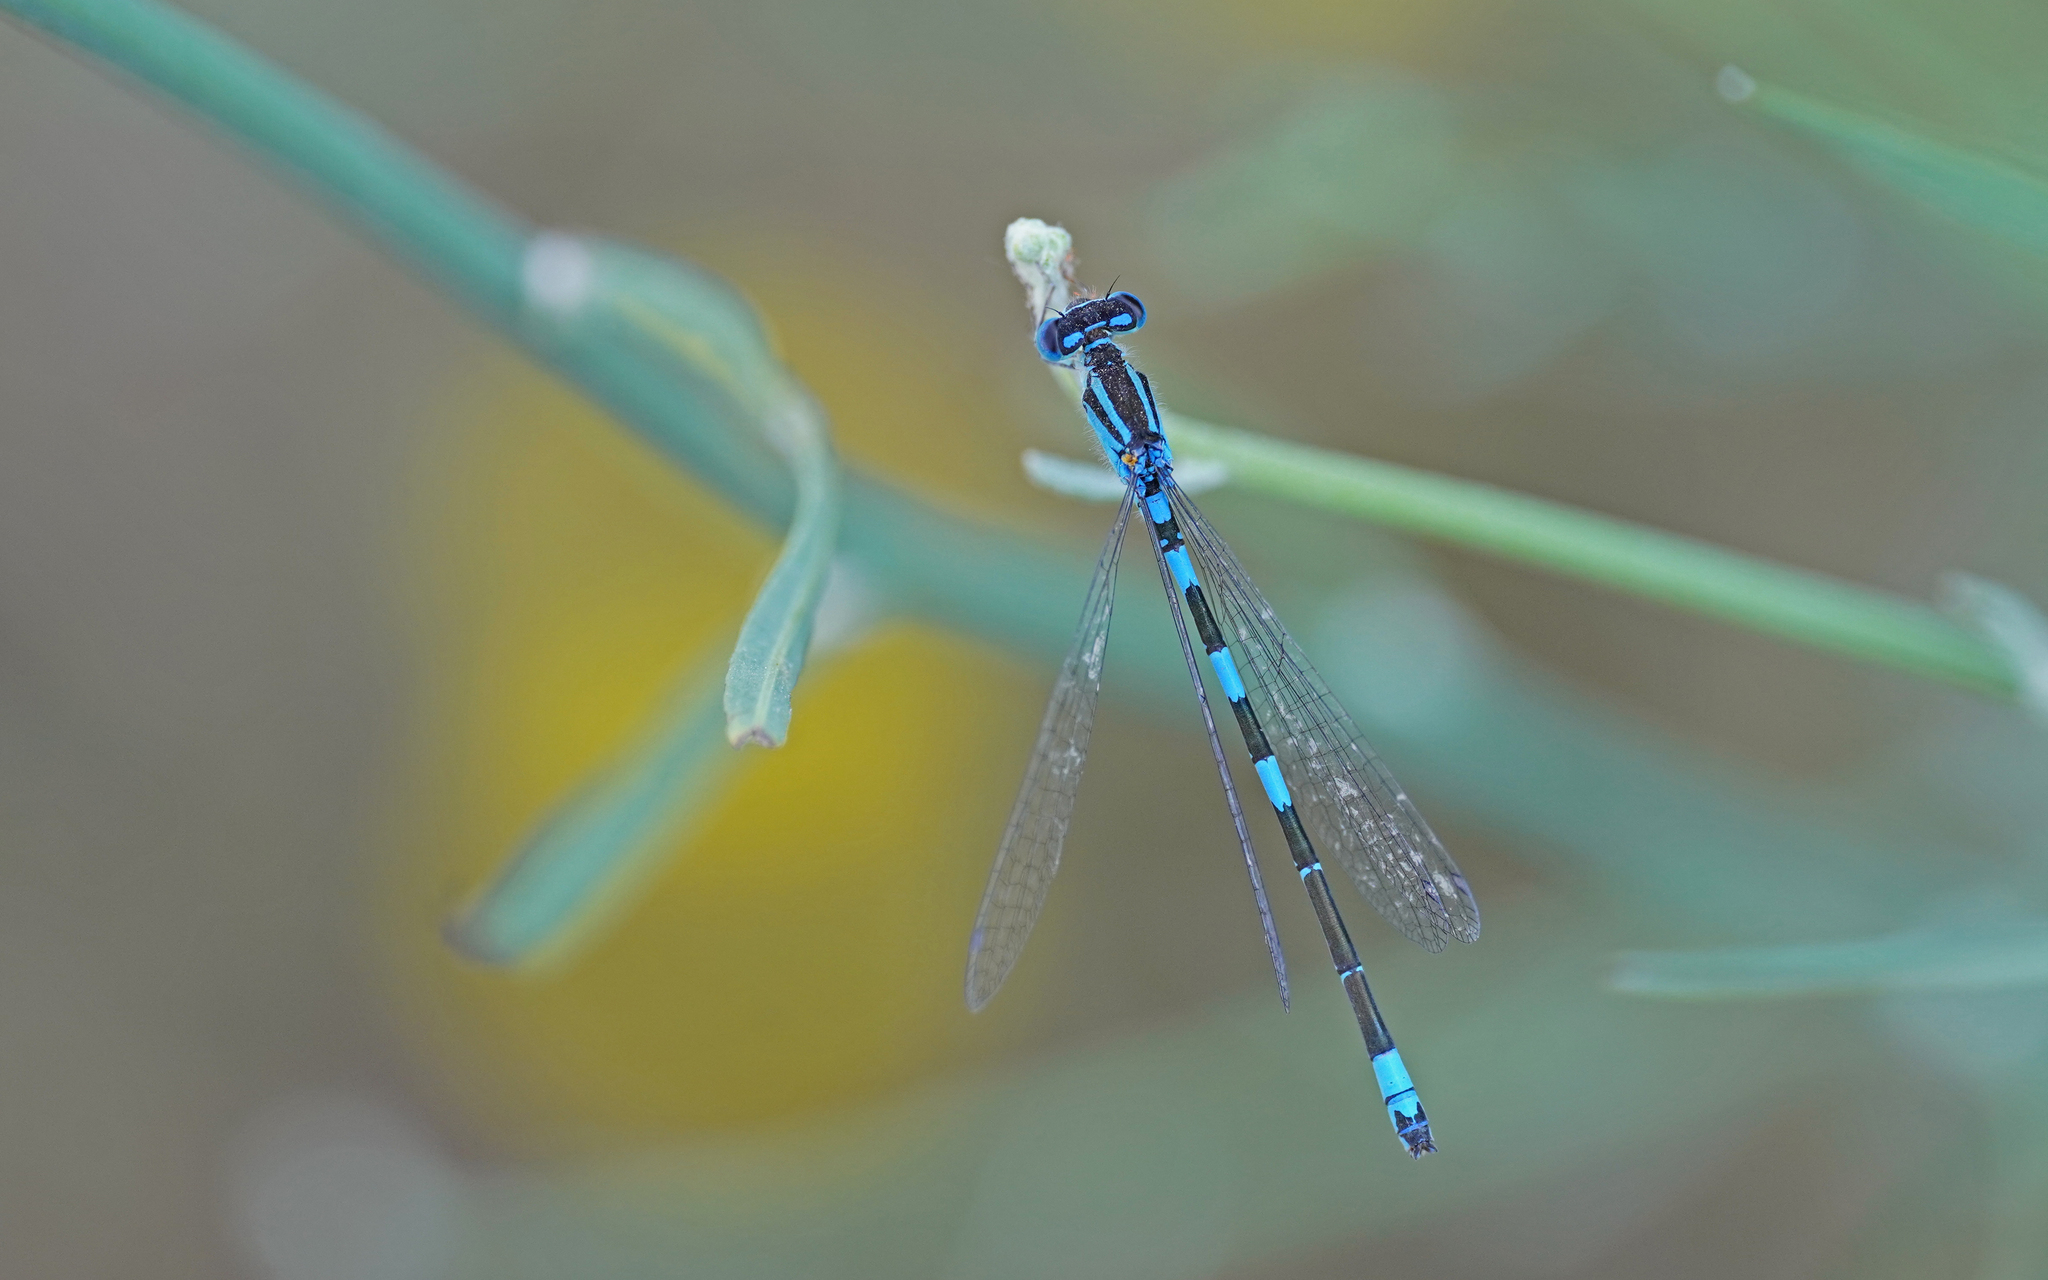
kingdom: Animalia
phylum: Arthropoda
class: Insecta
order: Odonata
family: Coenagrionidae
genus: Coenagrion
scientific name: Coenagrion caerulescens
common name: Mediterranean bluet
